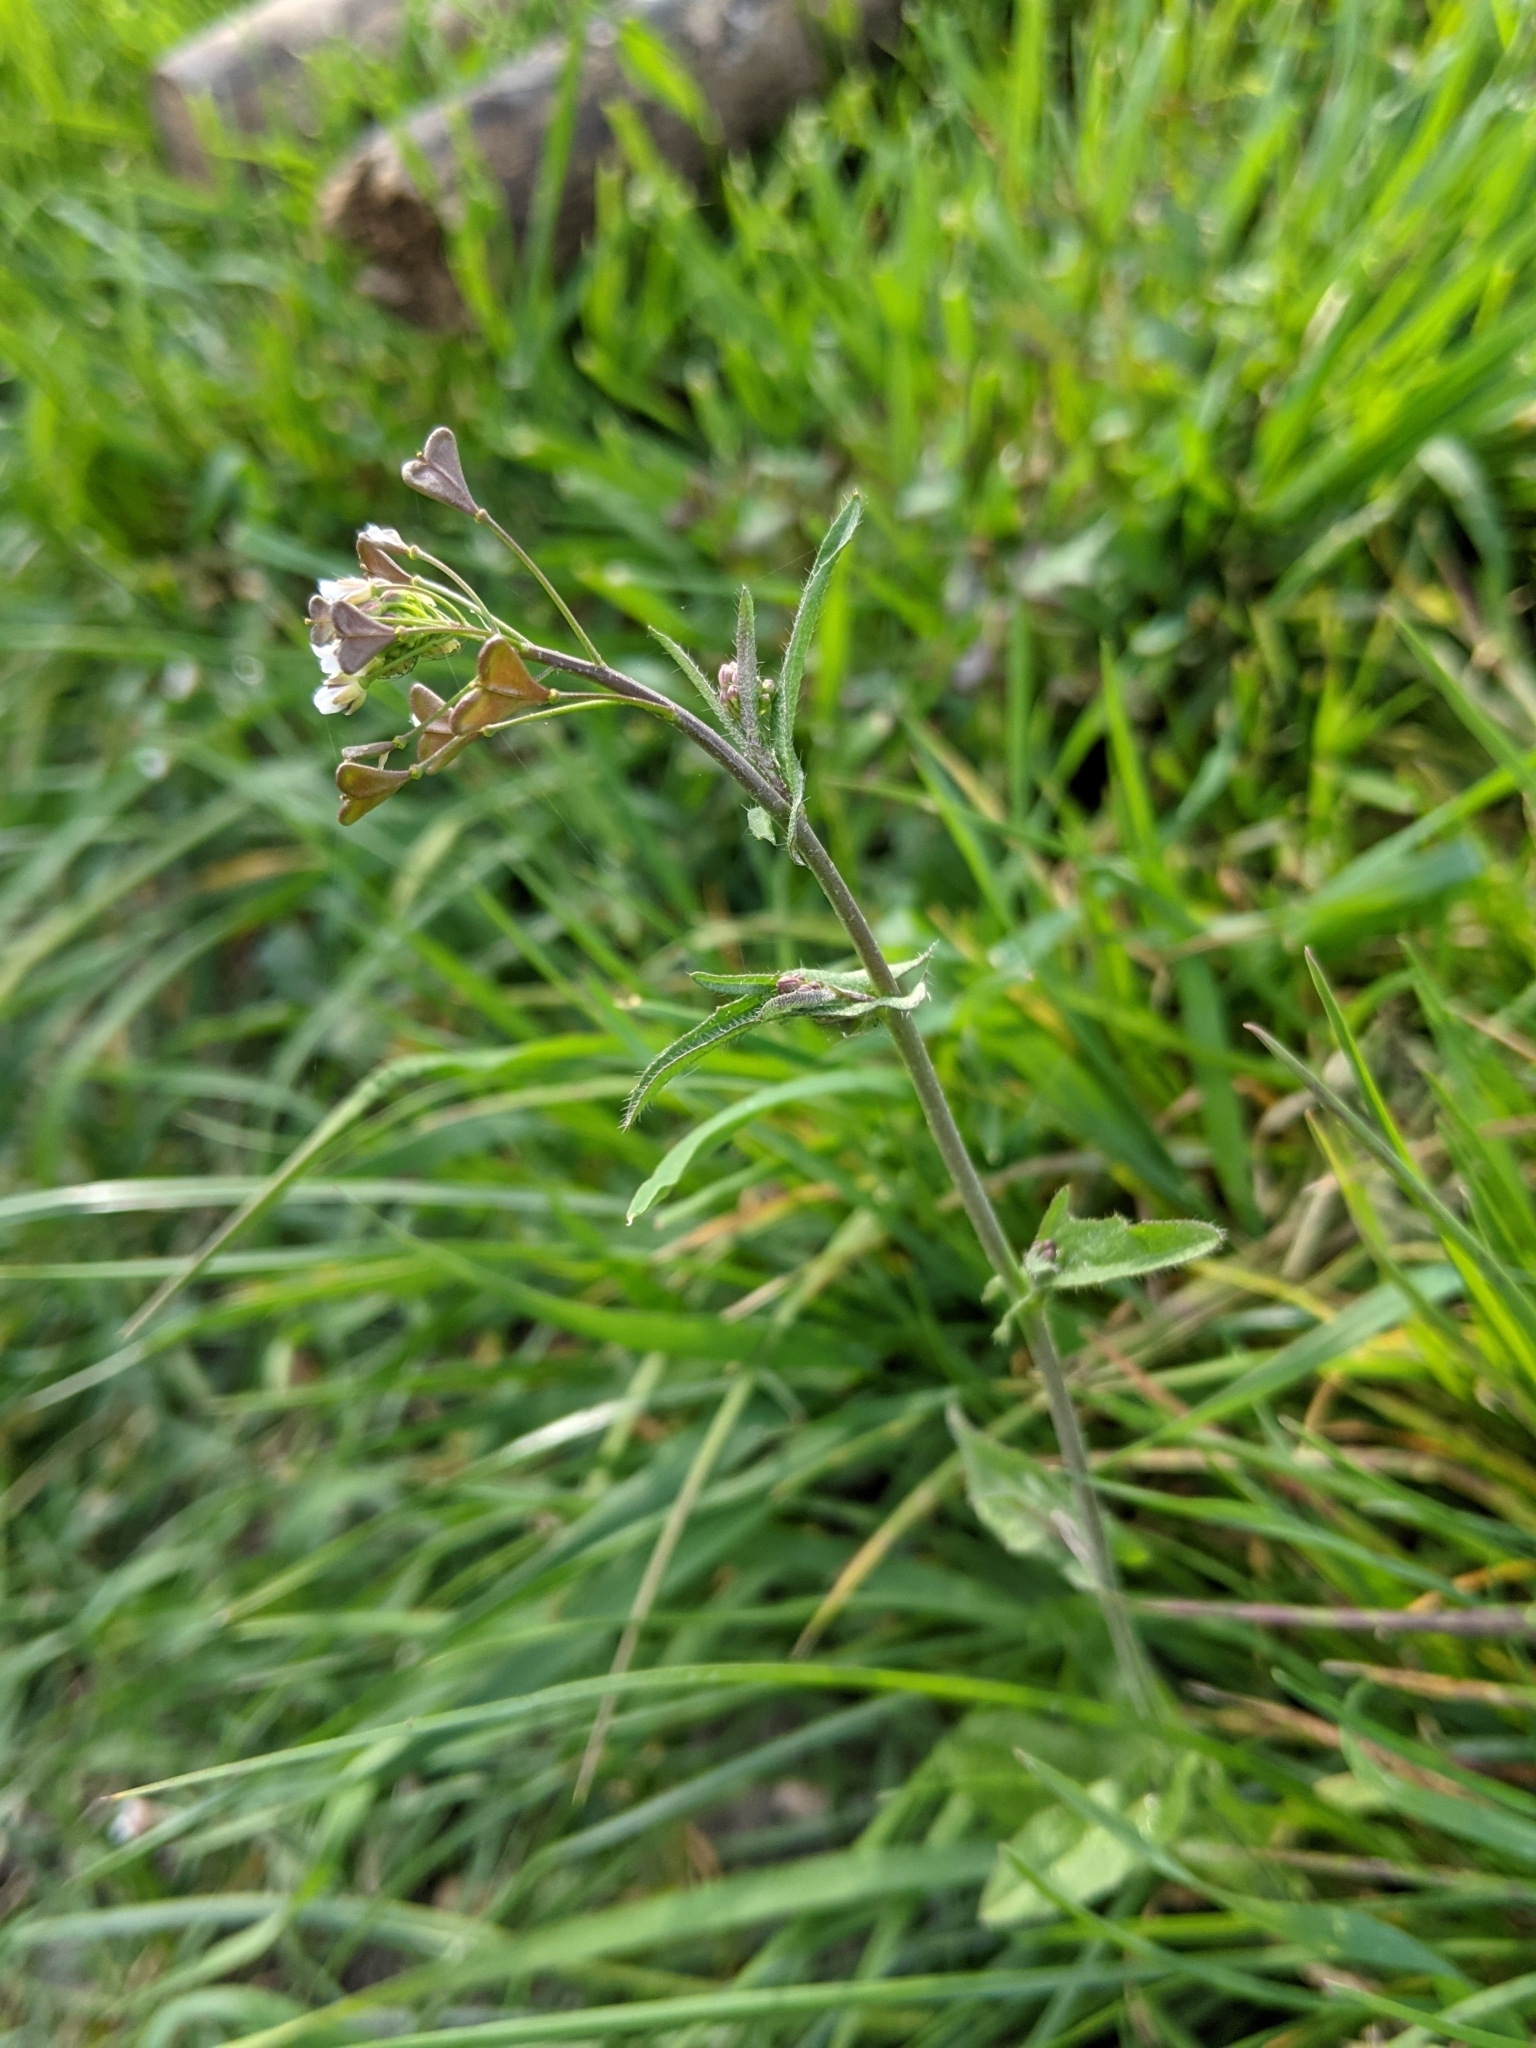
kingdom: Plantae
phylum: Tracheophyta
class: Magnoliopsida
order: Brassicales
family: Brassicaceae
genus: Capsella
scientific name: Capsella bursa-pastoris
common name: Shepherd's purse
